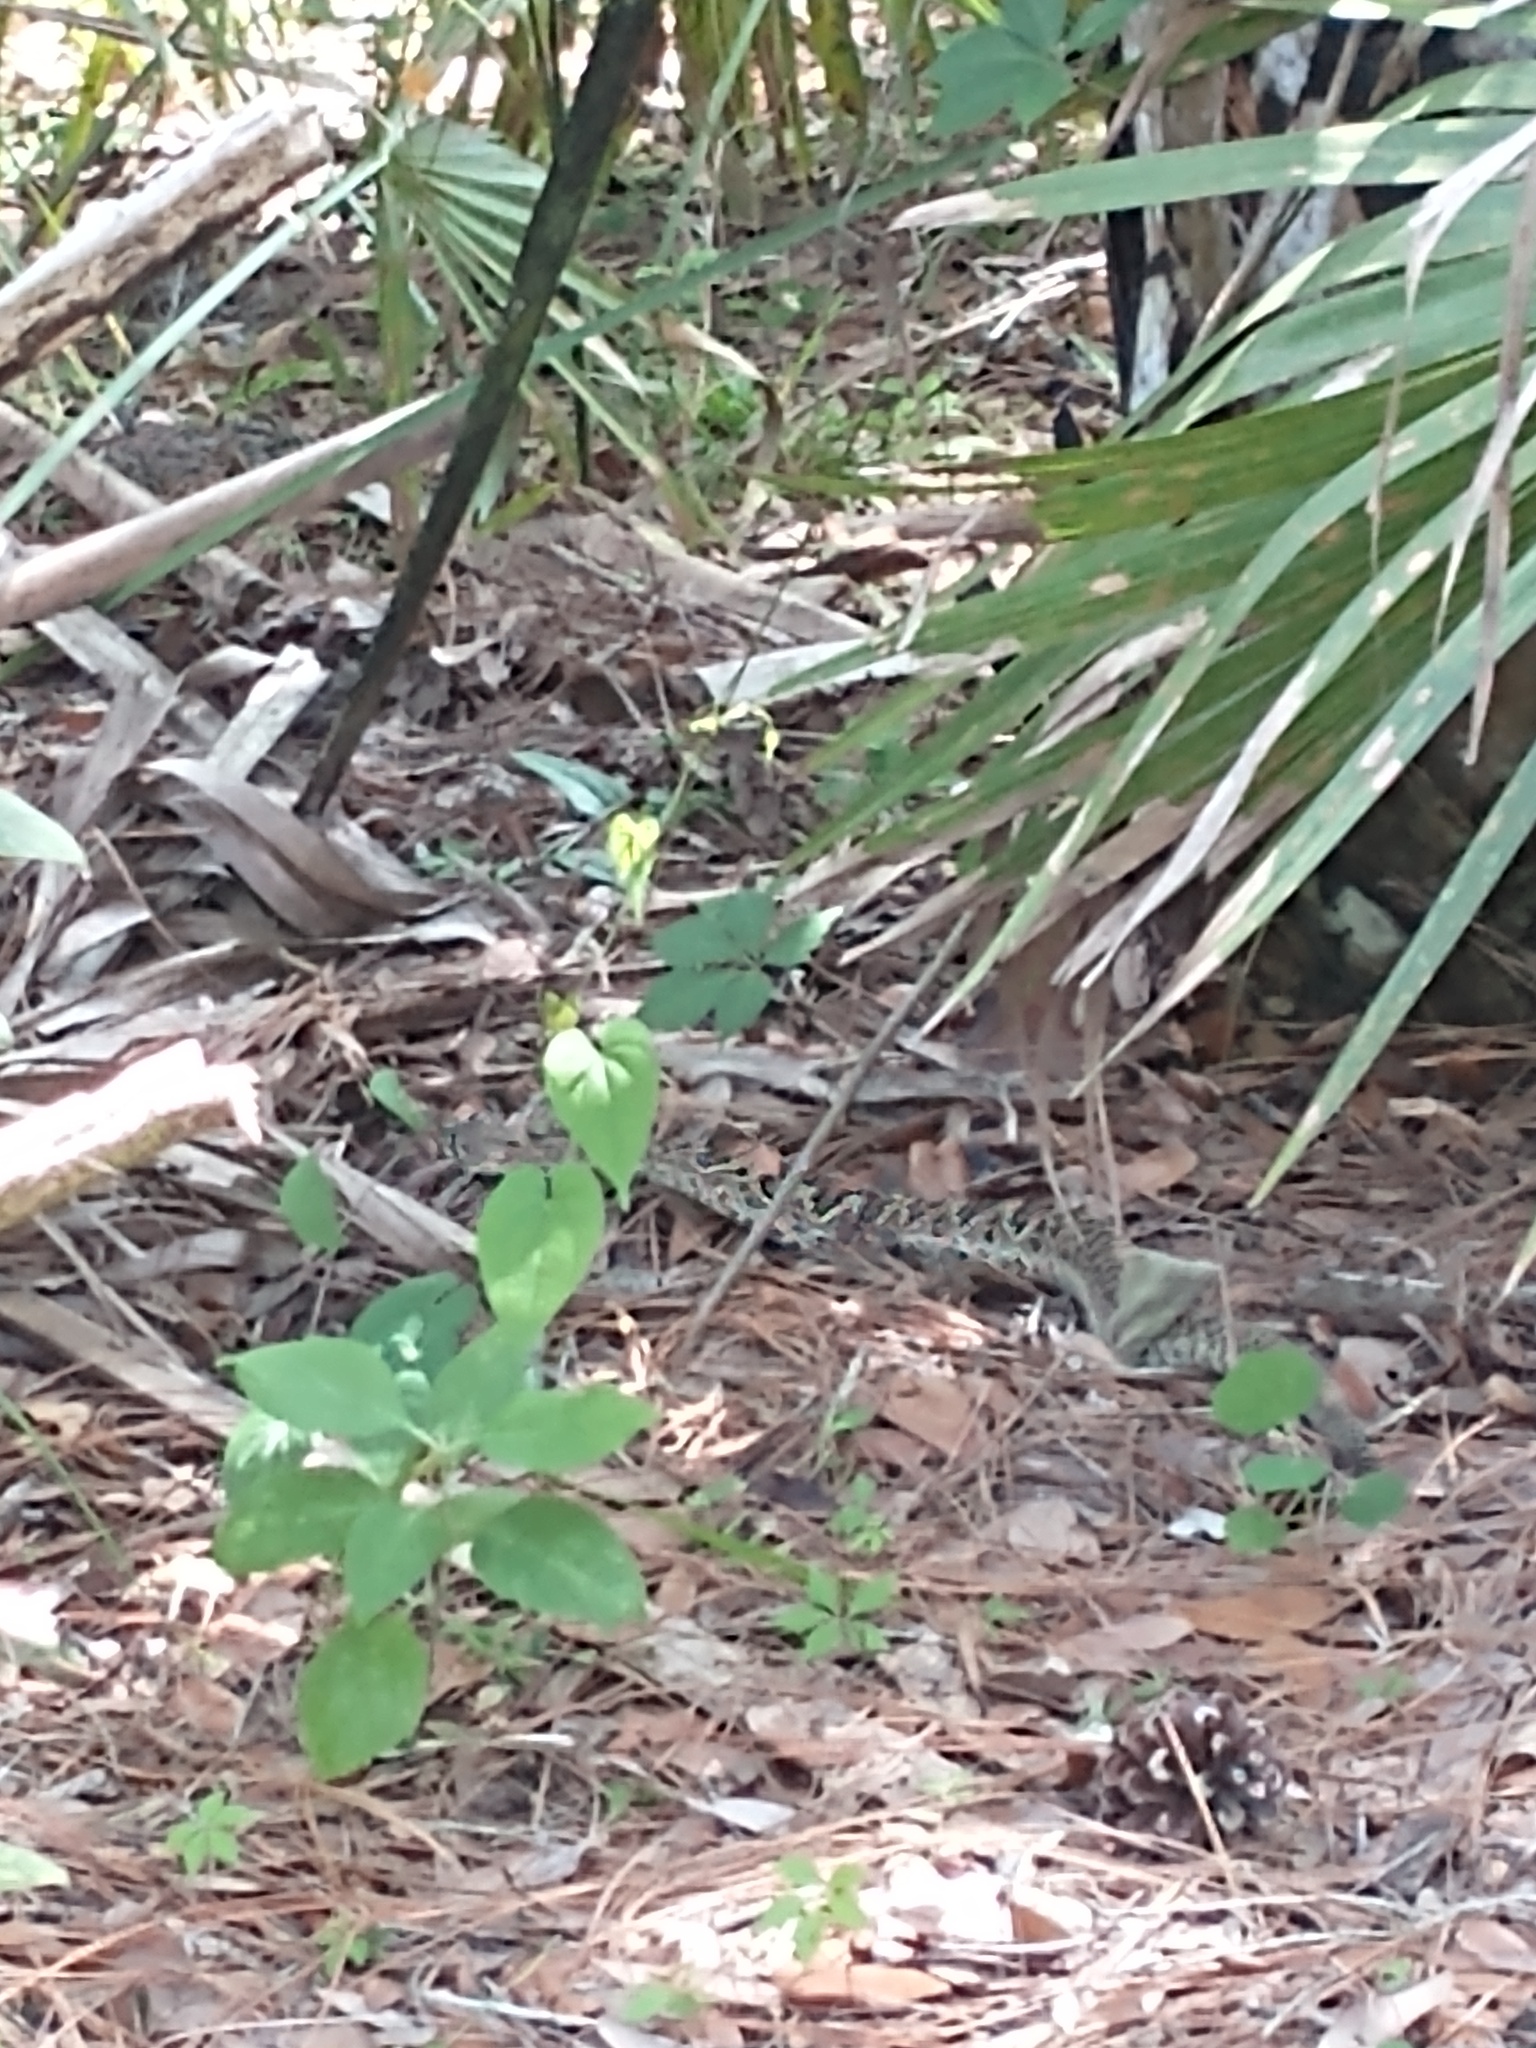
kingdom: Animalia
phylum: Chordata
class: Squamata
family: Viperidae
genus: Crotalus
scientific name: Crotalus adamanteus
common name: Eastern diamondback rattlesnake
